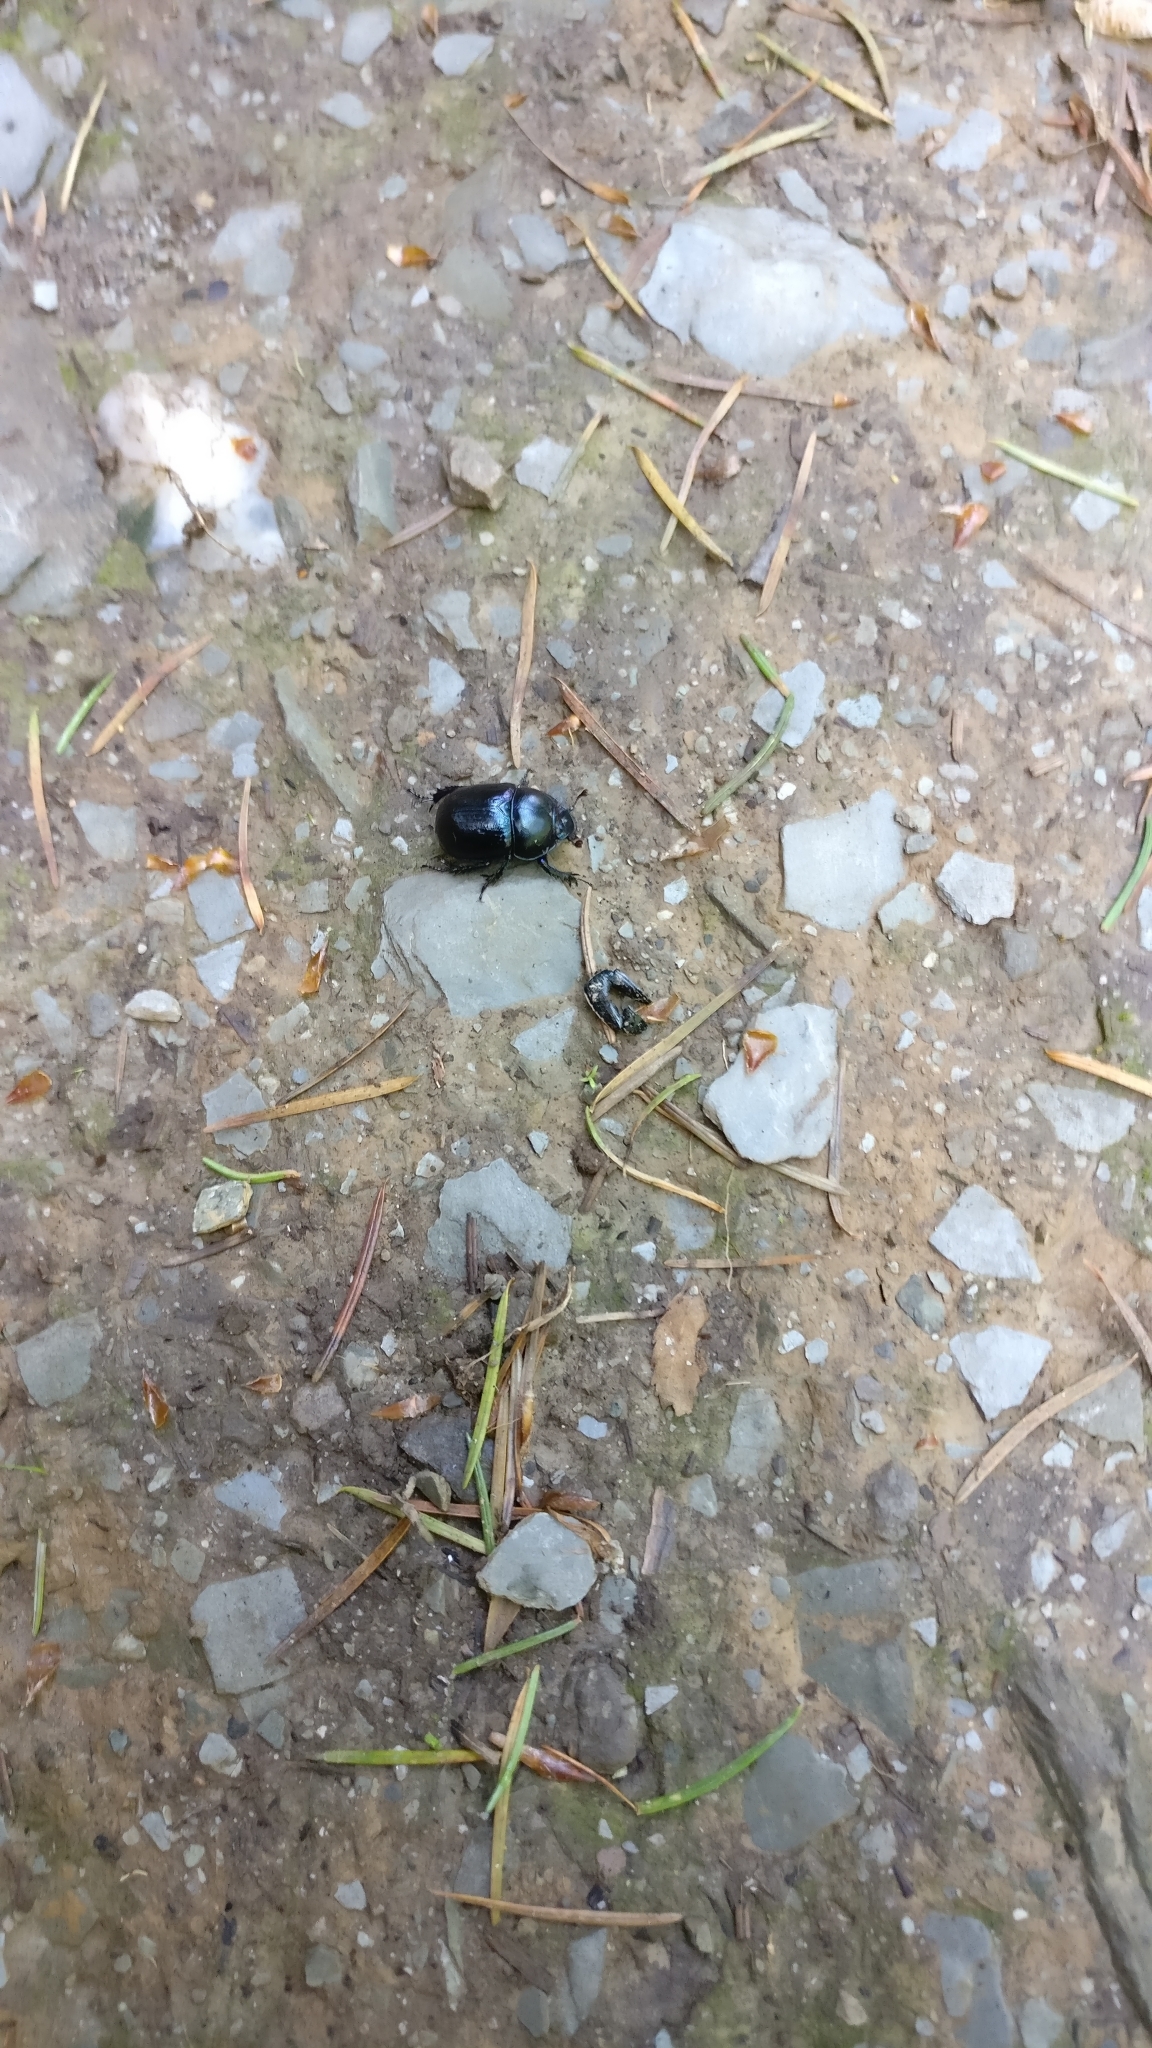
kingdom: Animalia
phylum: Arthropoda
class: Insecta
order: Coleoptera
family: Geotrupidae
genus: Anoplotrupes
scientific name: Anoplotrupes stercorosus
